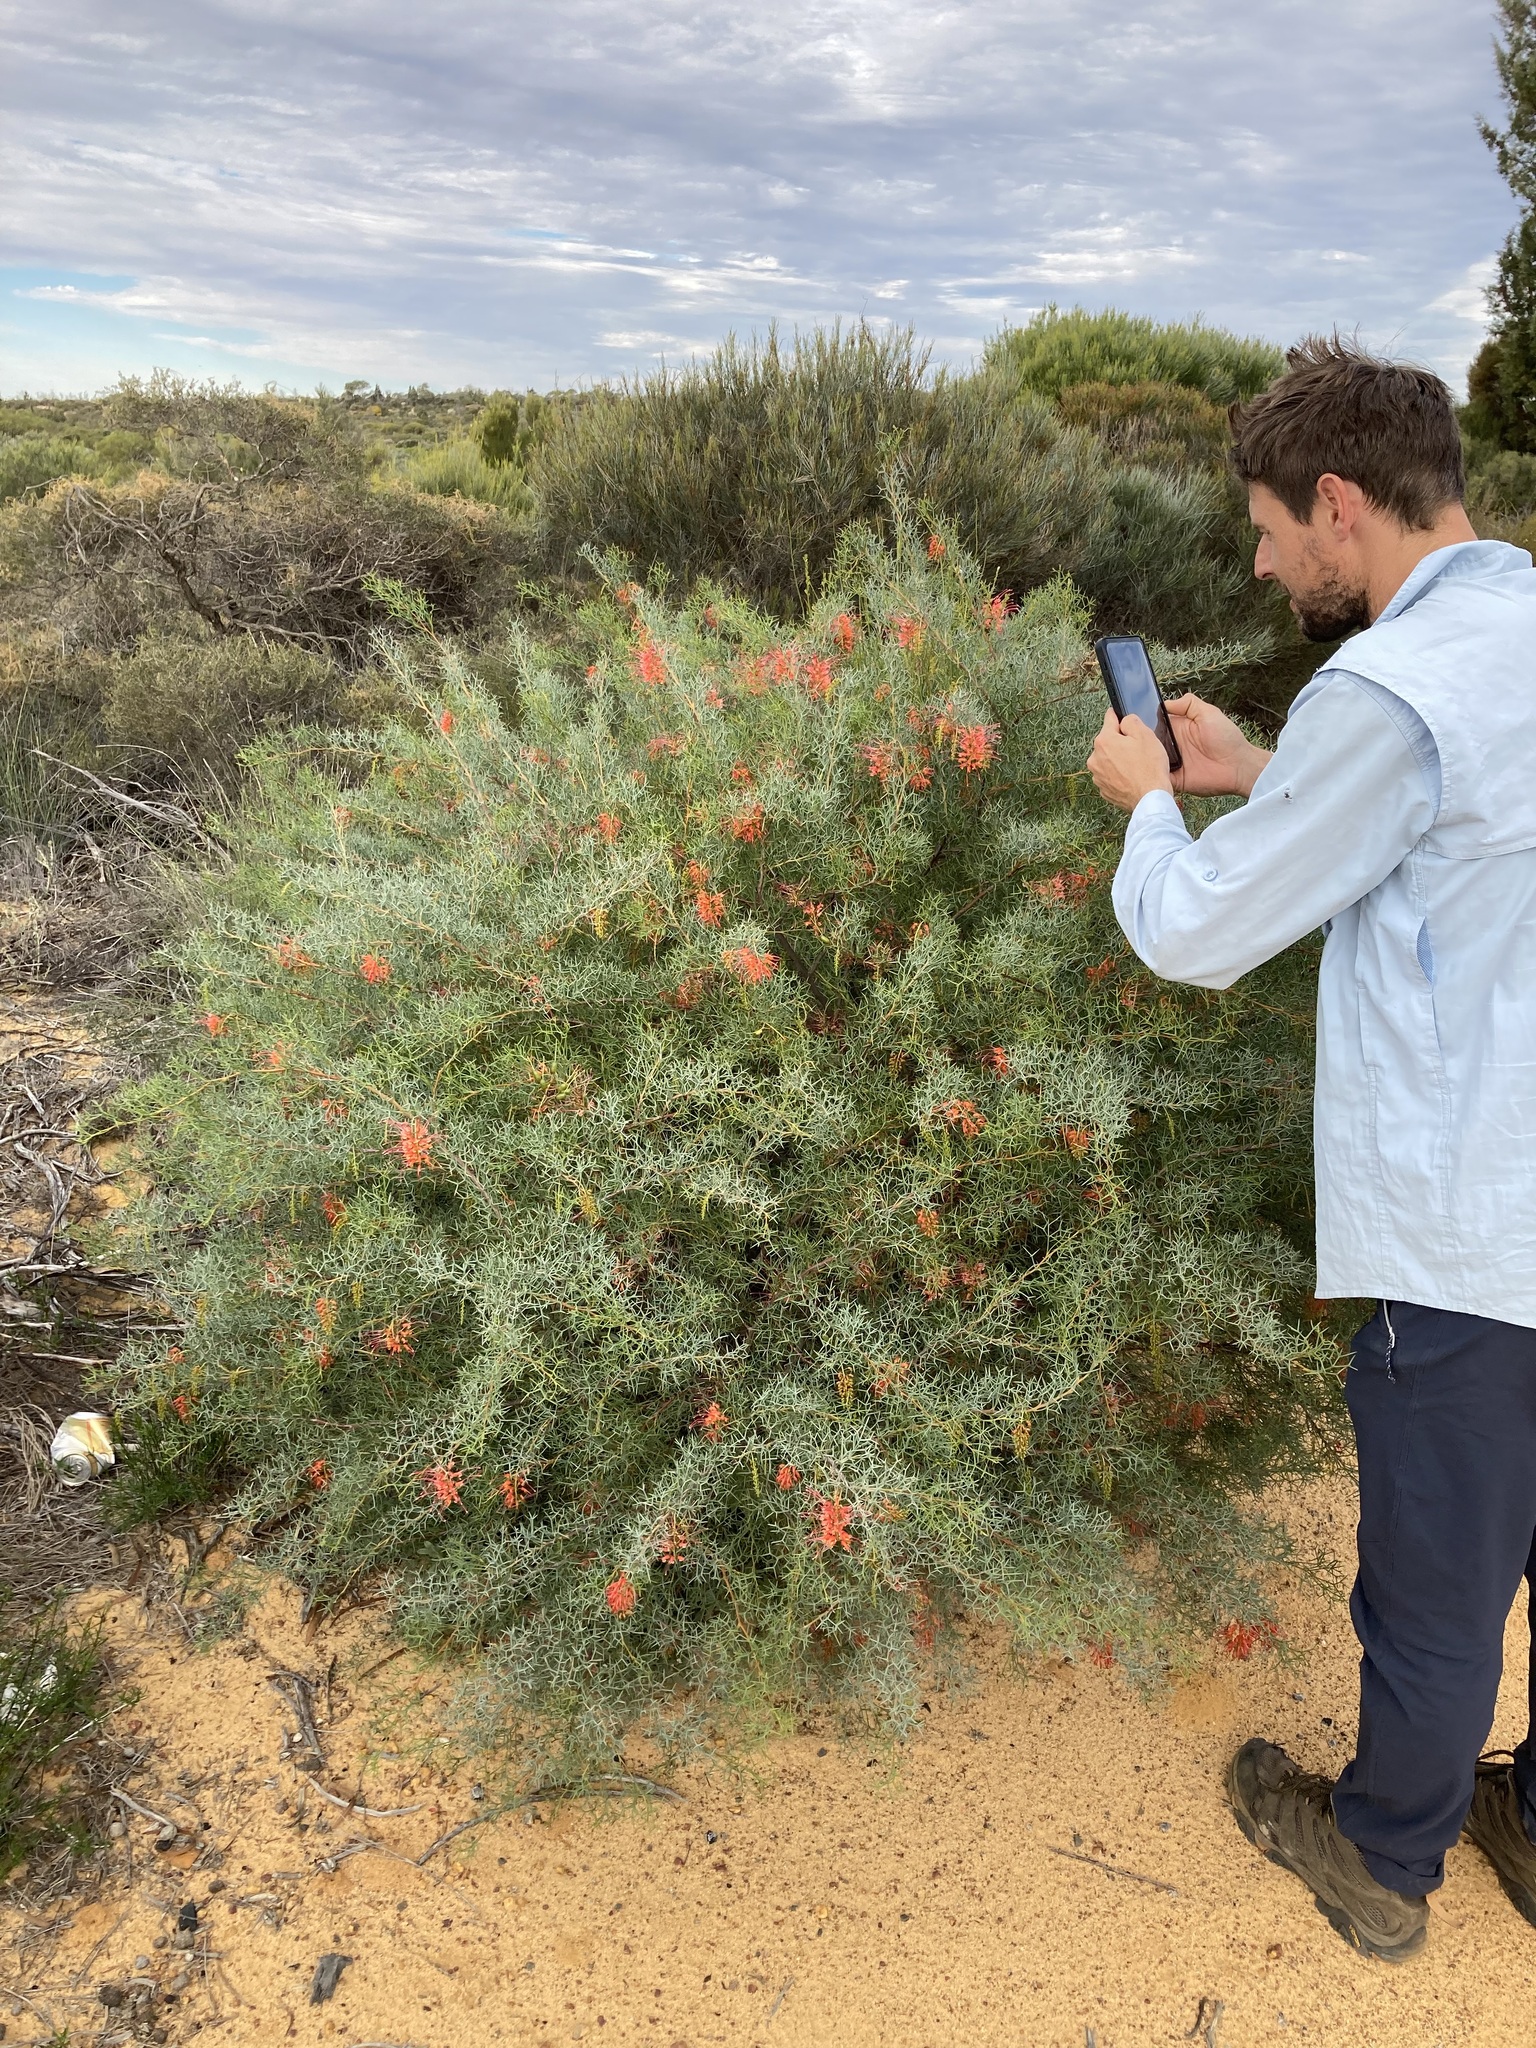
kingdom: Plantae
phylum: Tracheophyta
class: Magnoliopsida
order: Proteales
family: Proteaceae
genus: Grevillea
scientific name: Grevillea dielsiana
